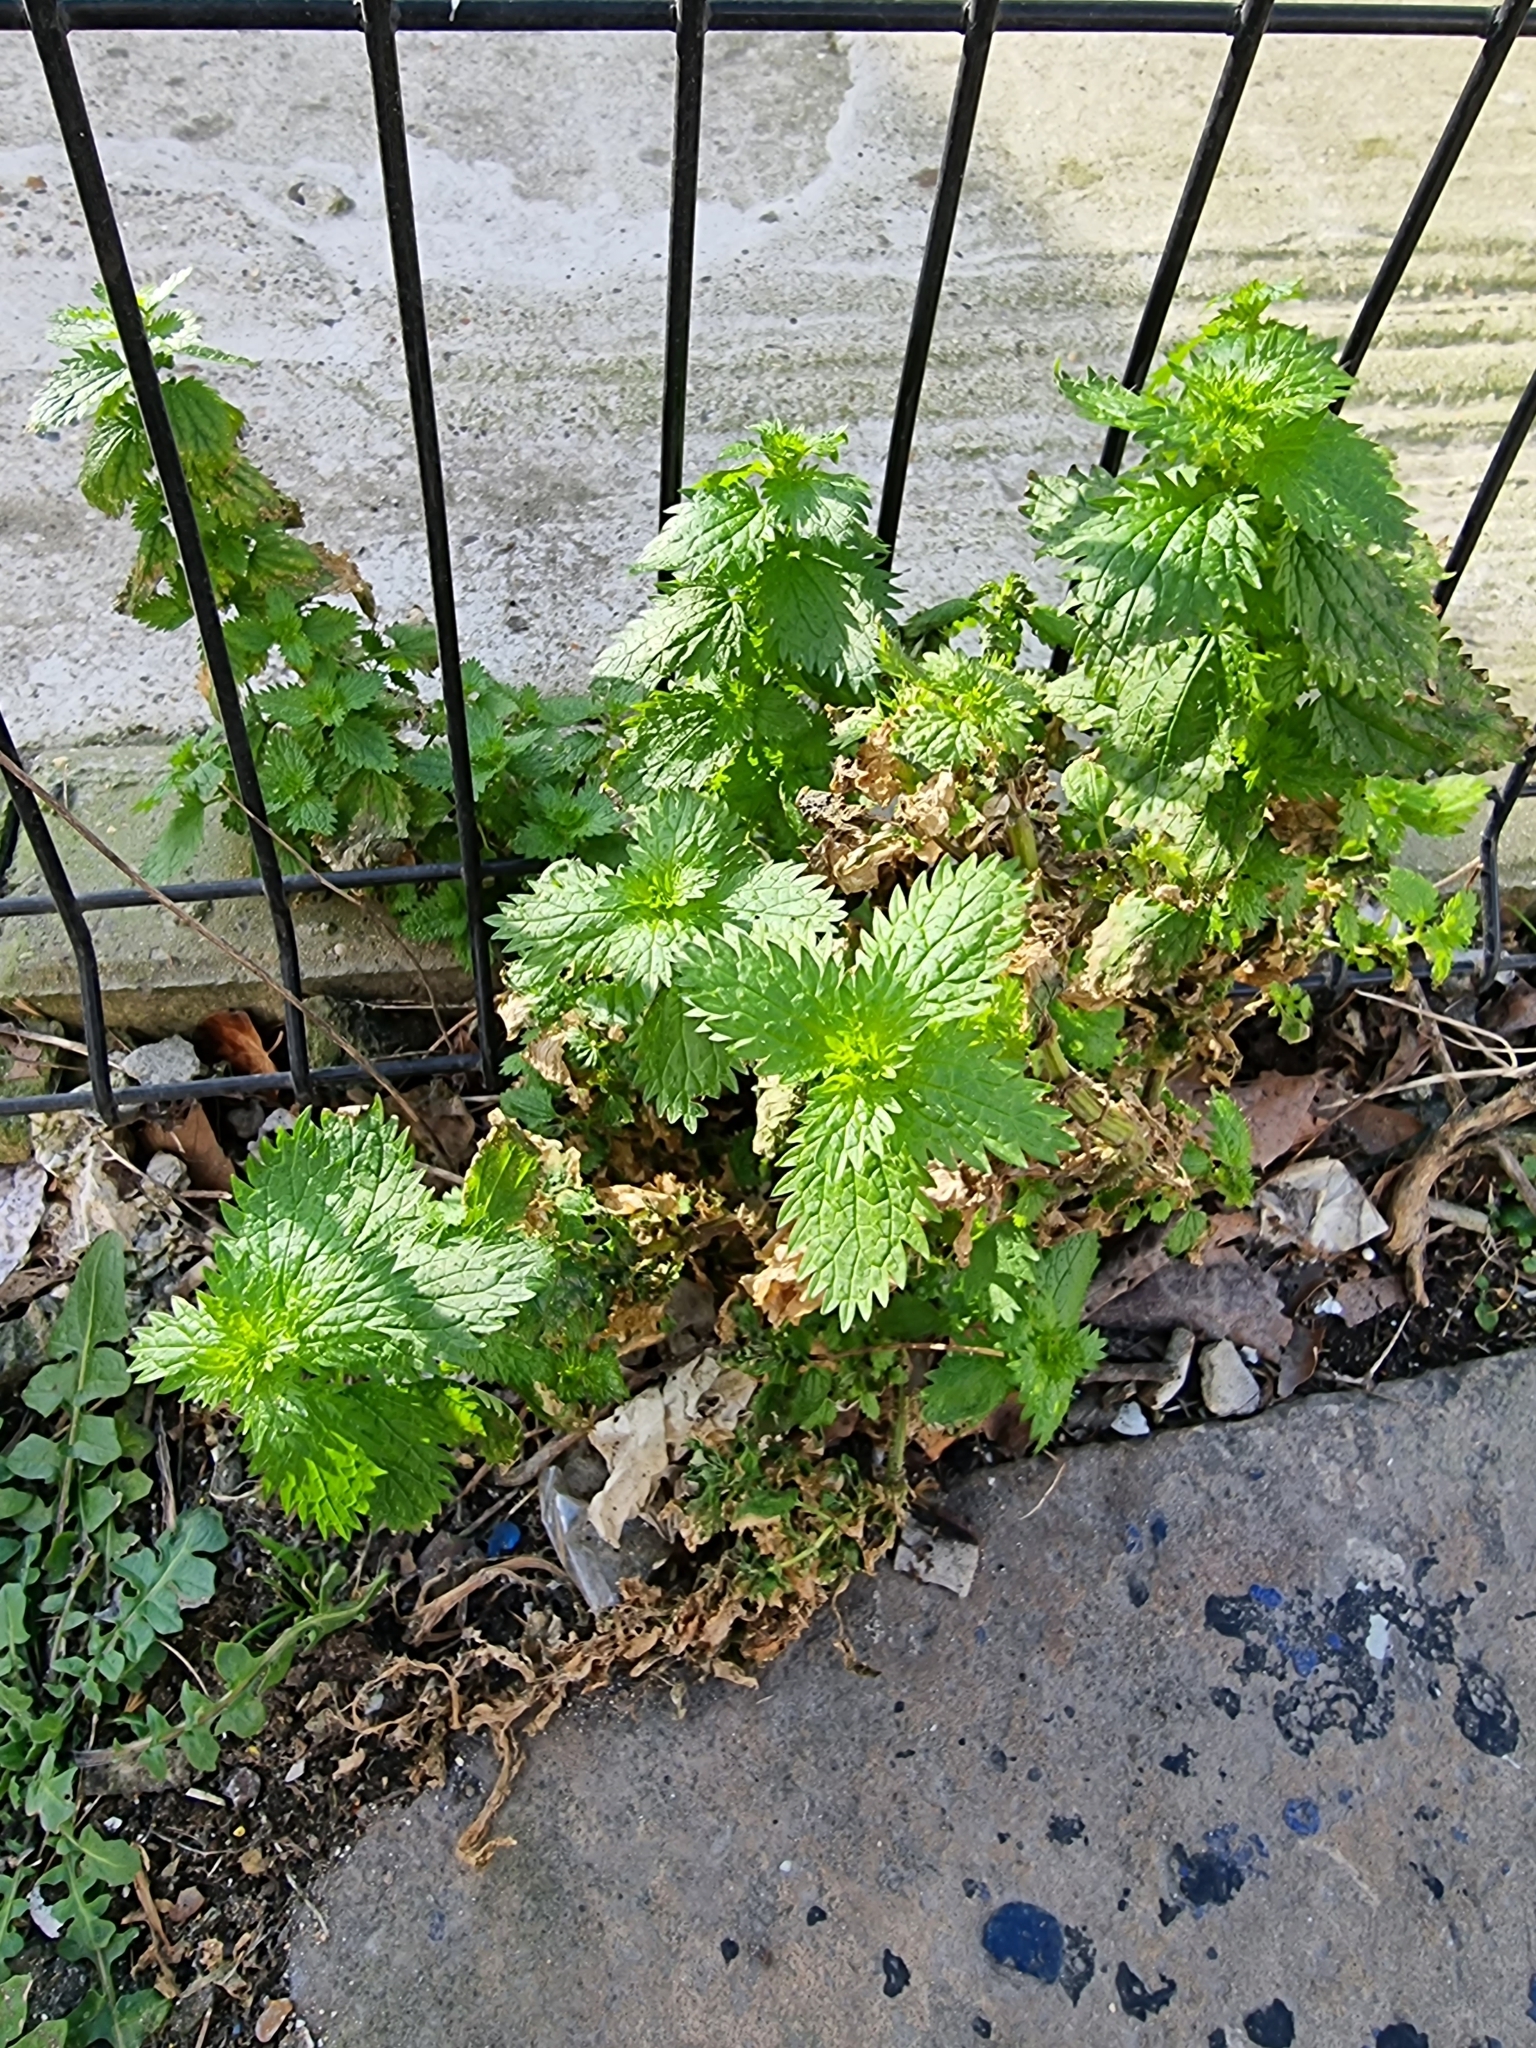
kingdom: Plantae
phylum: Tracheophyta
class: Magnoliopsida
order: Rosales
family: Urticaceae
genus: Urtica
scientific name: Urtica urens
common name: Dwarf nettle
